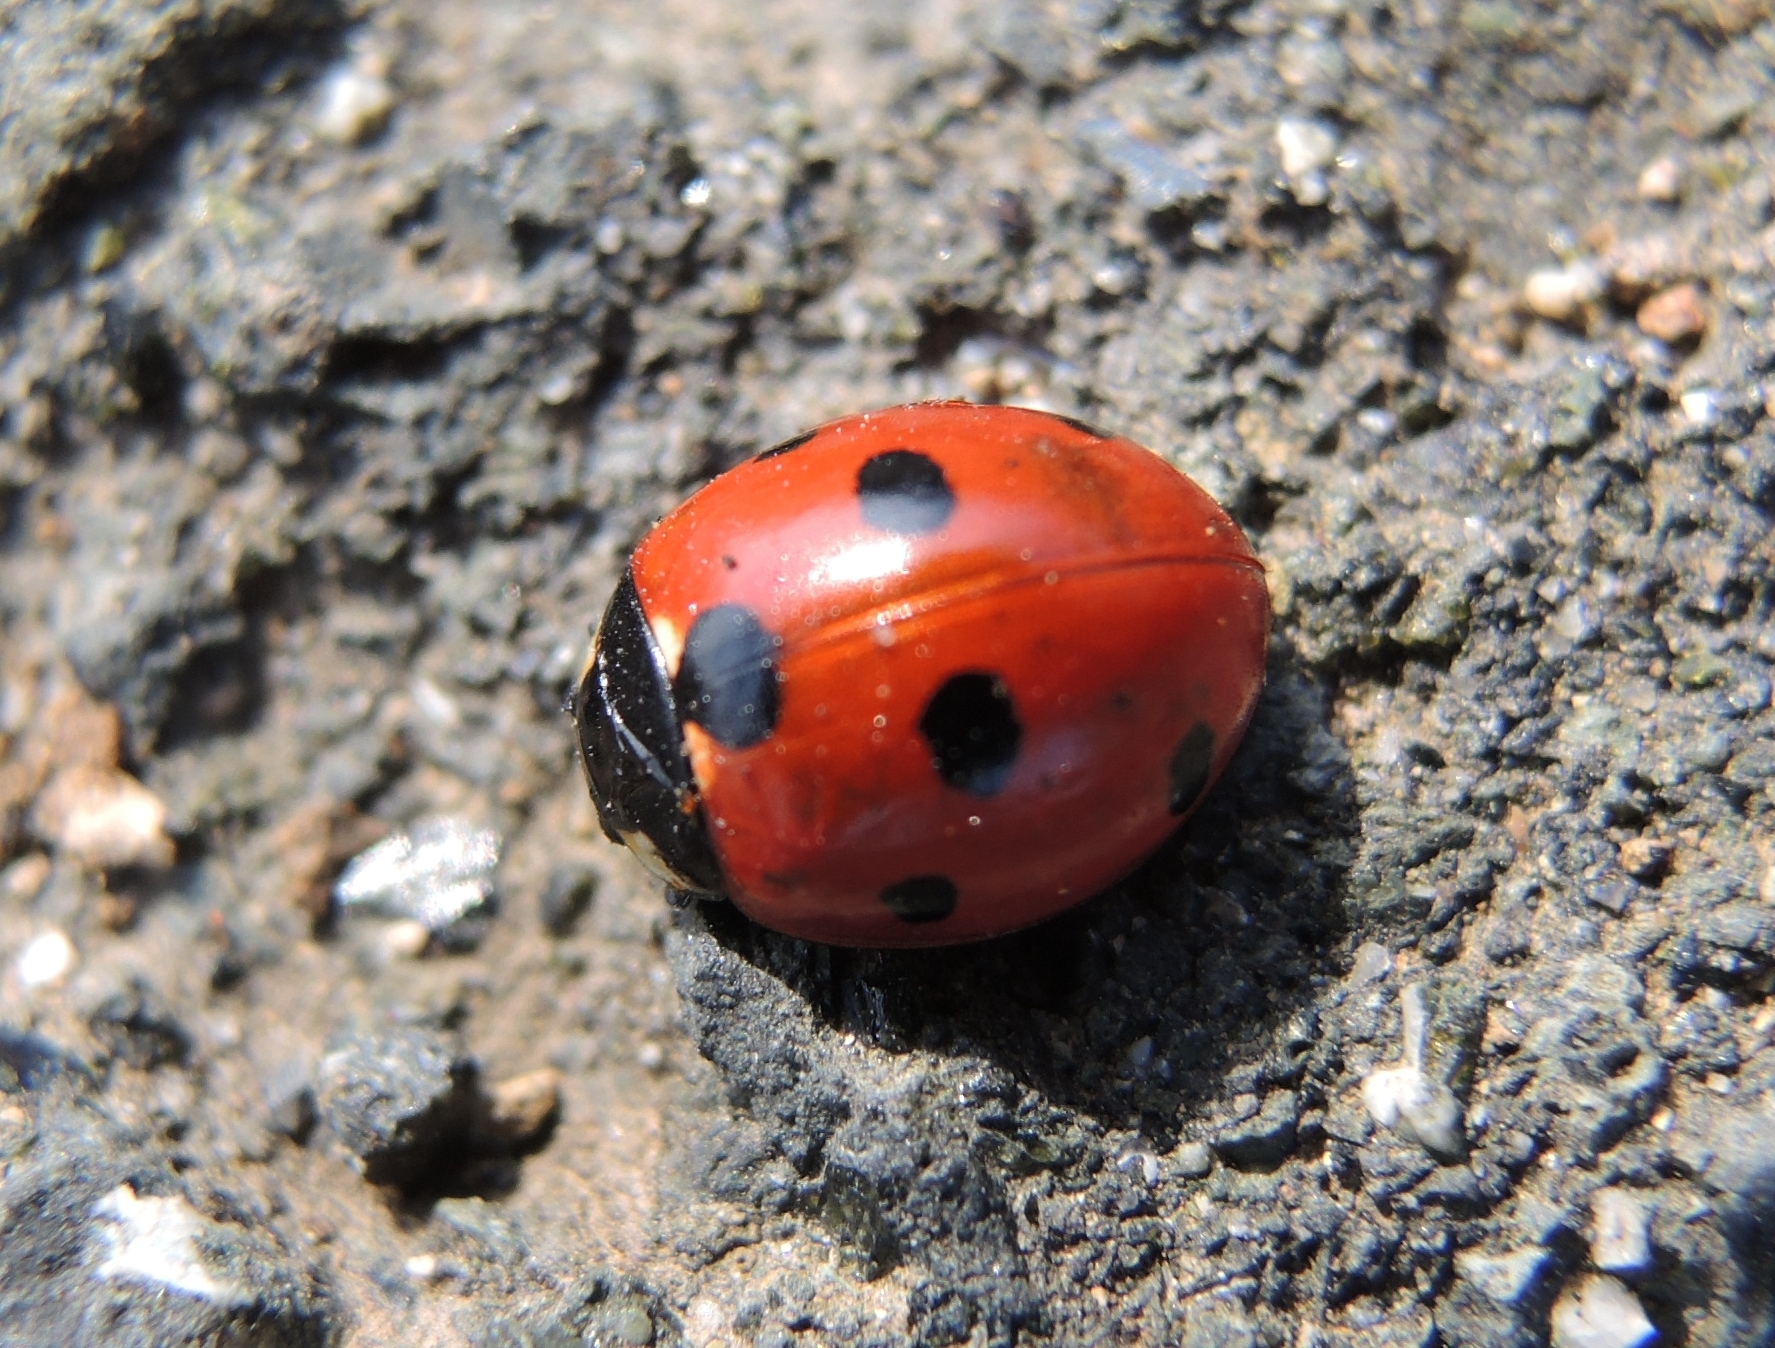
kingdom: Animalia
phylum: Arthropoda
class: Insecta
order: Coleoptera
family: Coccinellidae
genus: Coccinella
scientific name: Coccinella septempunctata
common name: Sevenspotted lady beetle
